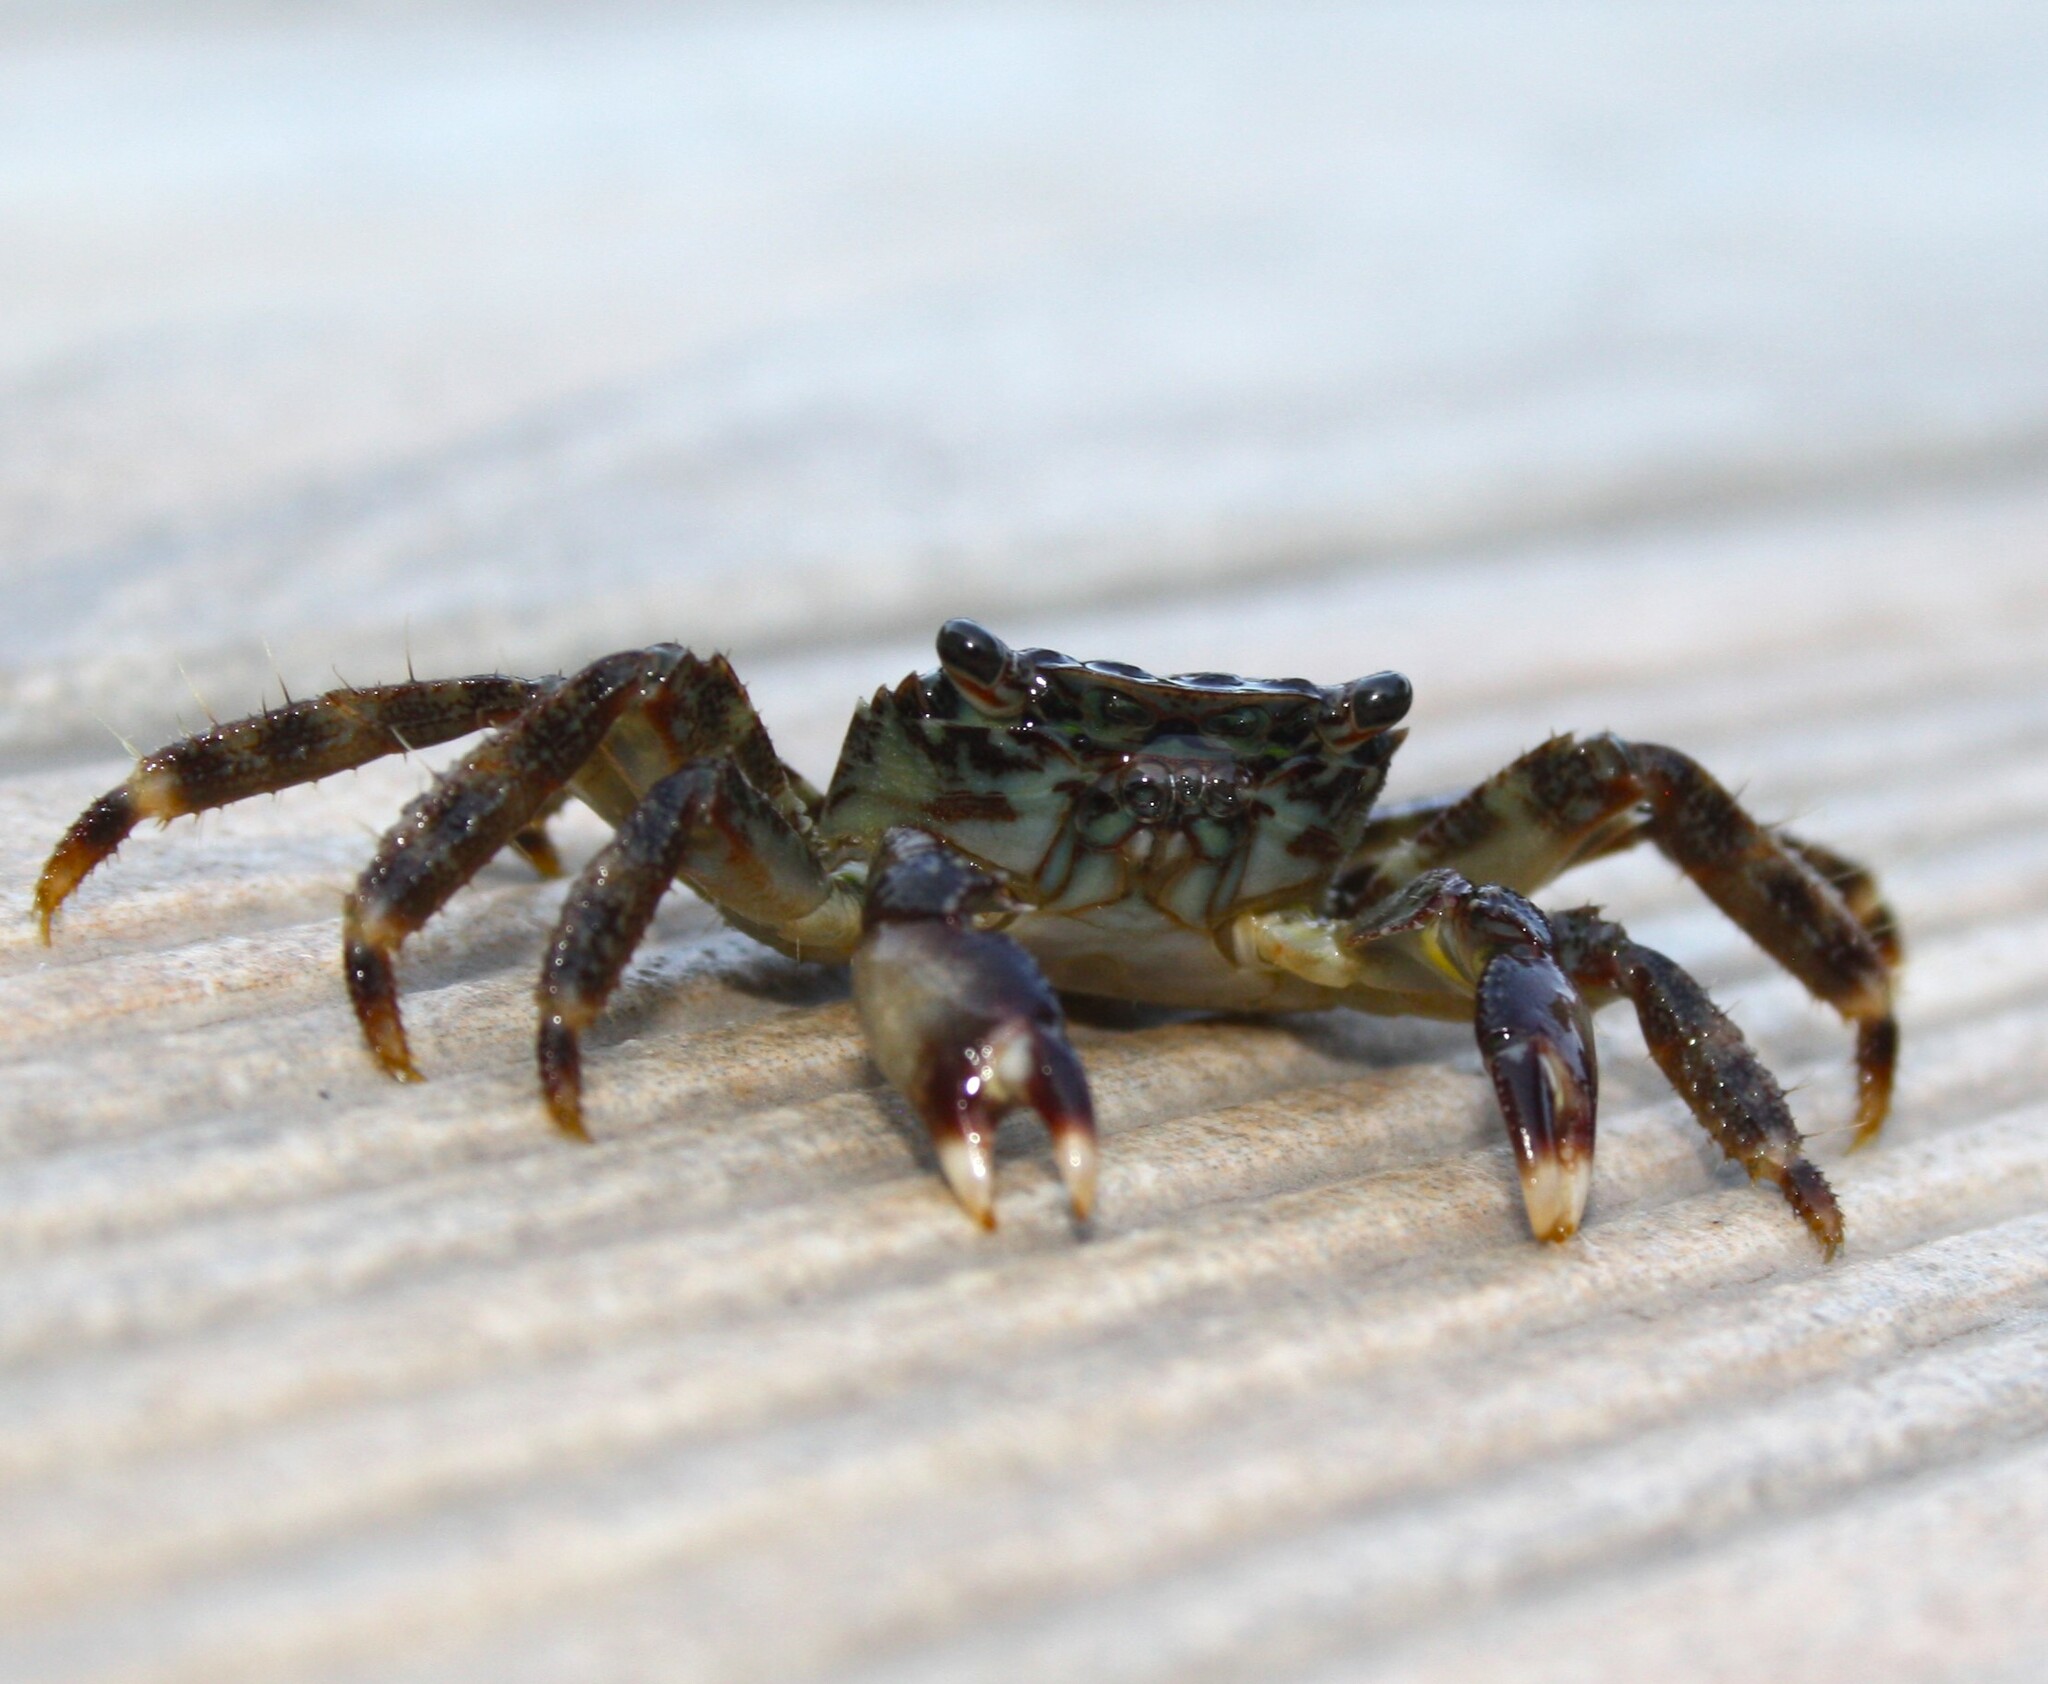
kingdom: Animalia
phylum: Arthropoda
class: Malacostraca
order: Decapoda
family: Grapsidae
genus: Pachygrapsus
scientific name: Pachygrapsus marmoratus
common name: Marbled rock crab
